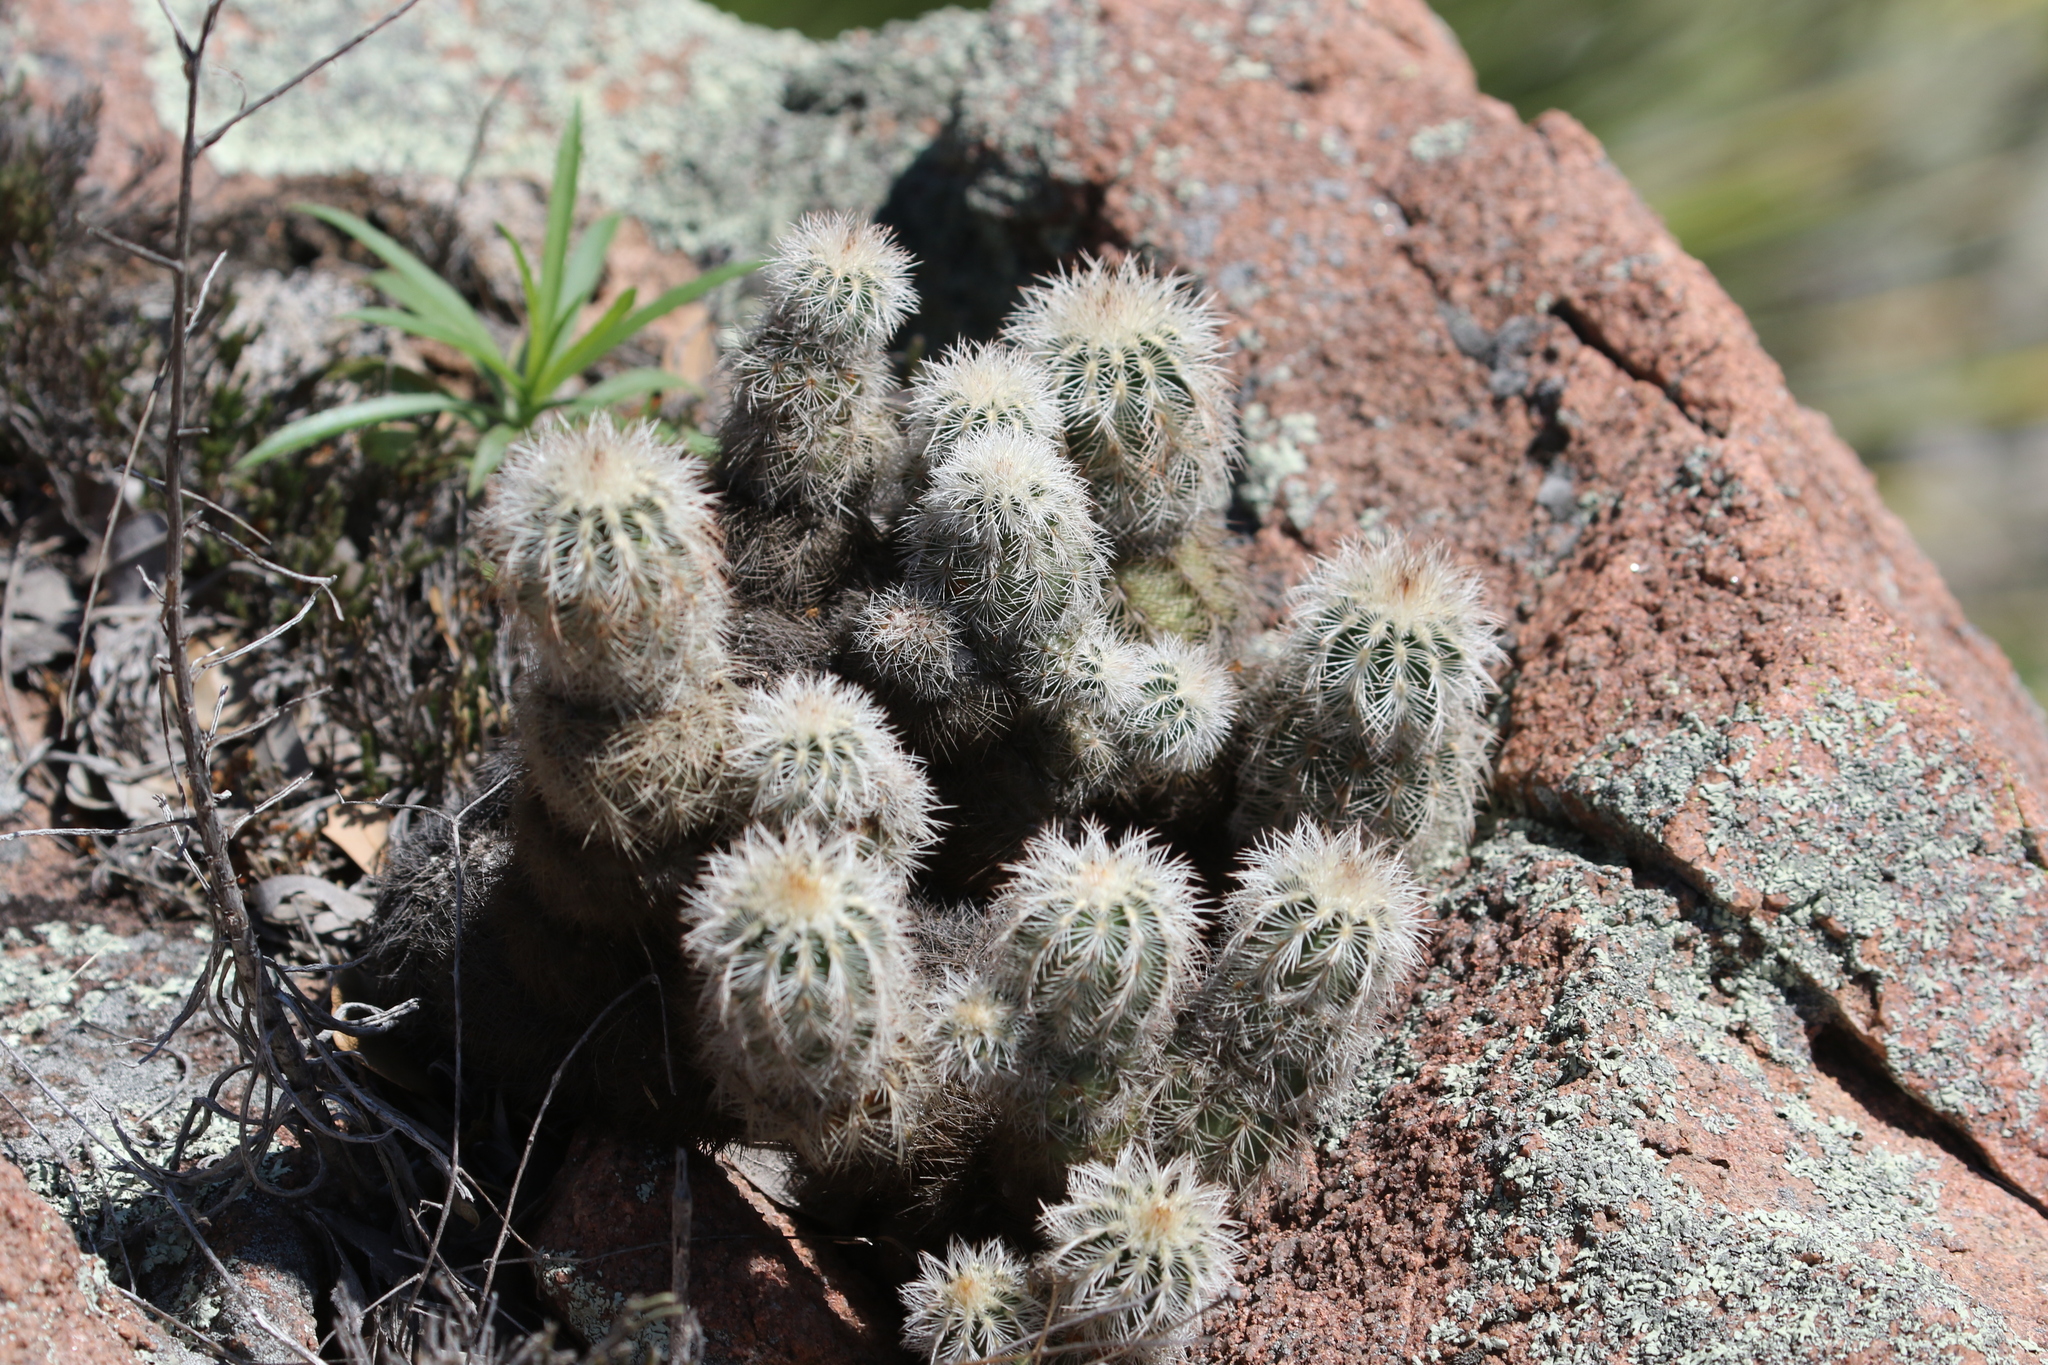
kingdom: Plantae
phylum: Tracheophyta
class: Magnoliopsida
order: Caryophyllales
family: Cactaceae
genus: Echinocereus
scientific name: Echinocereus reichenbachii
